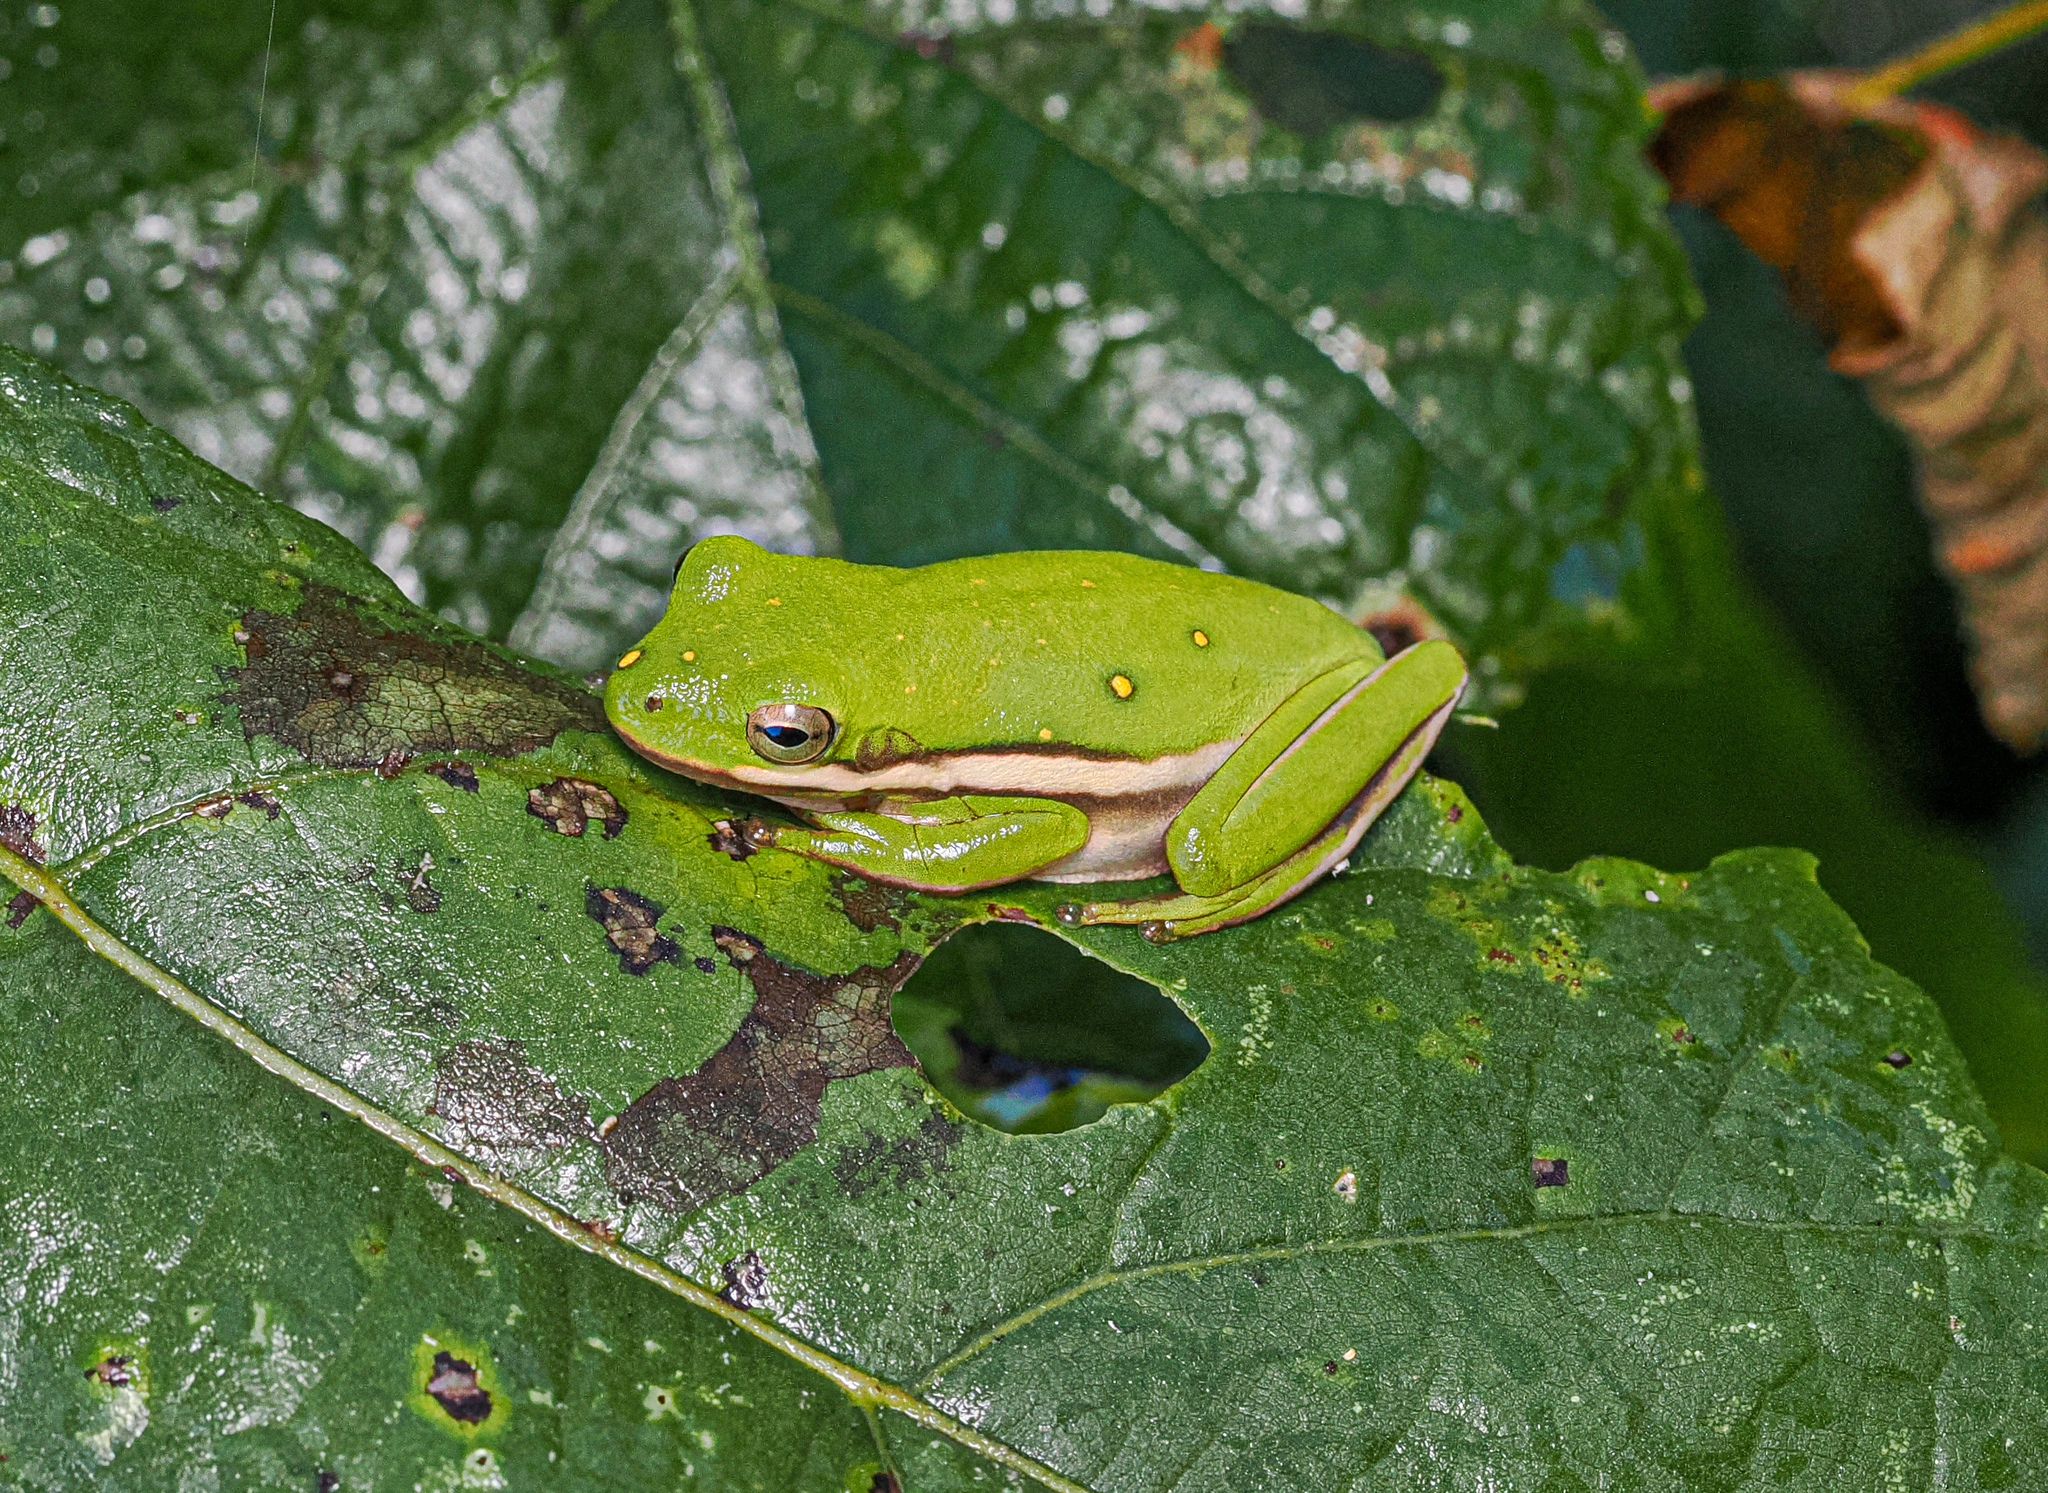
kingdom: Animalia
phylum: Chordata
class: Amphibia
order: Anura
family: Hylidae
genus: Dryophytes
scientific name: Dryophytes cinereus
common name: Green treefrog
